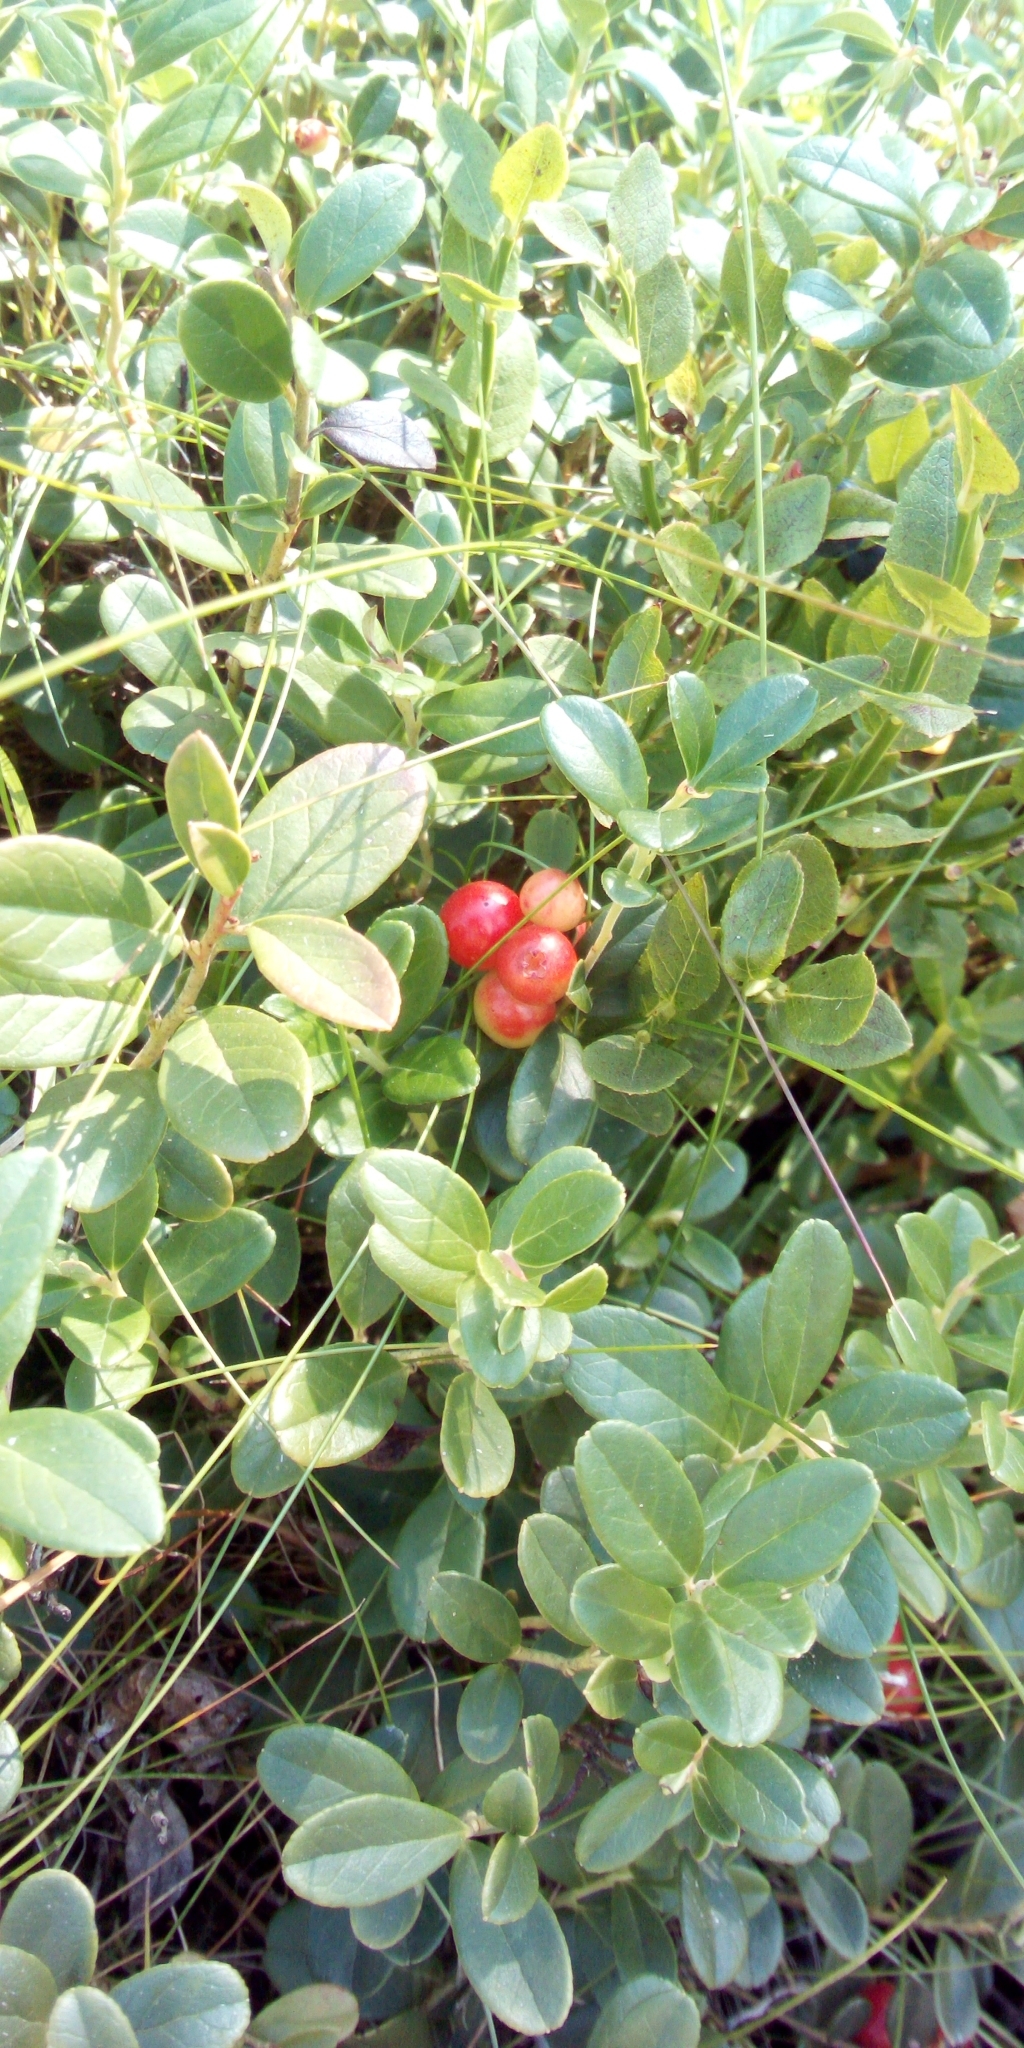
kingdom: Plantae
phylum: Tracheophyta
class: Magnoliopsida
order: Ericales
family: Ericaceae
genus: Vaccinium
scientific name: Vaccinium vitis-idaea
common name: Cowberry
